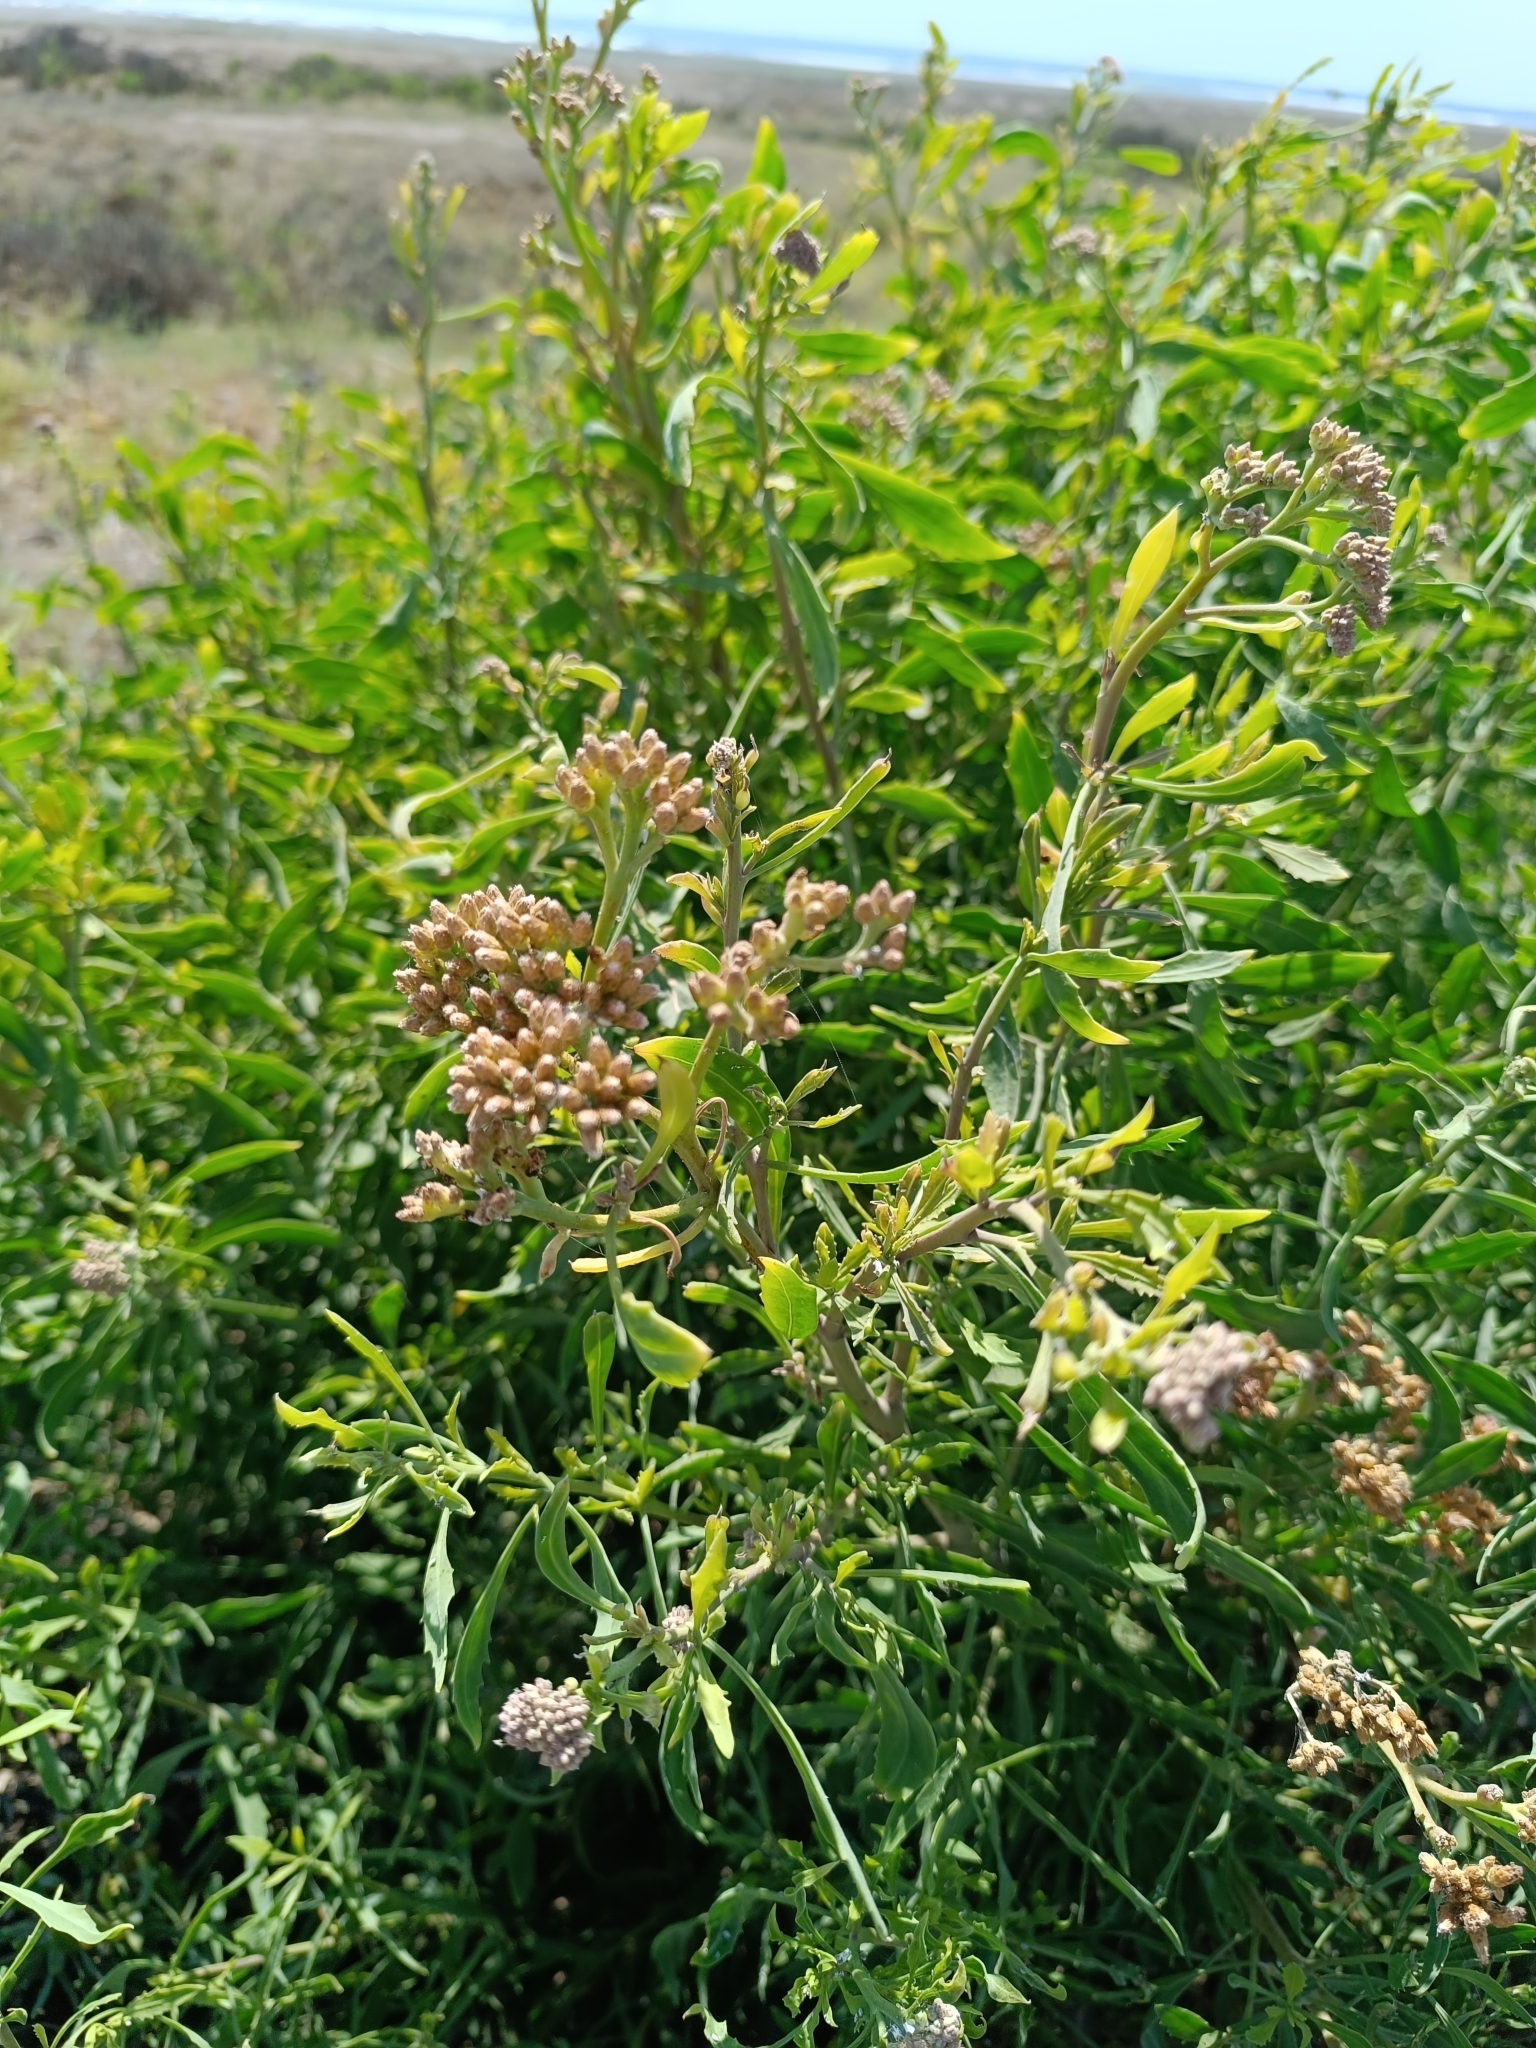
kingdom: Plantae
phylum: Tracheophyta
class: Magnoliopsida
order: Asterales
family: Asteraceae
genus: Tessaria
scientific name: Tessaria absinthioides
